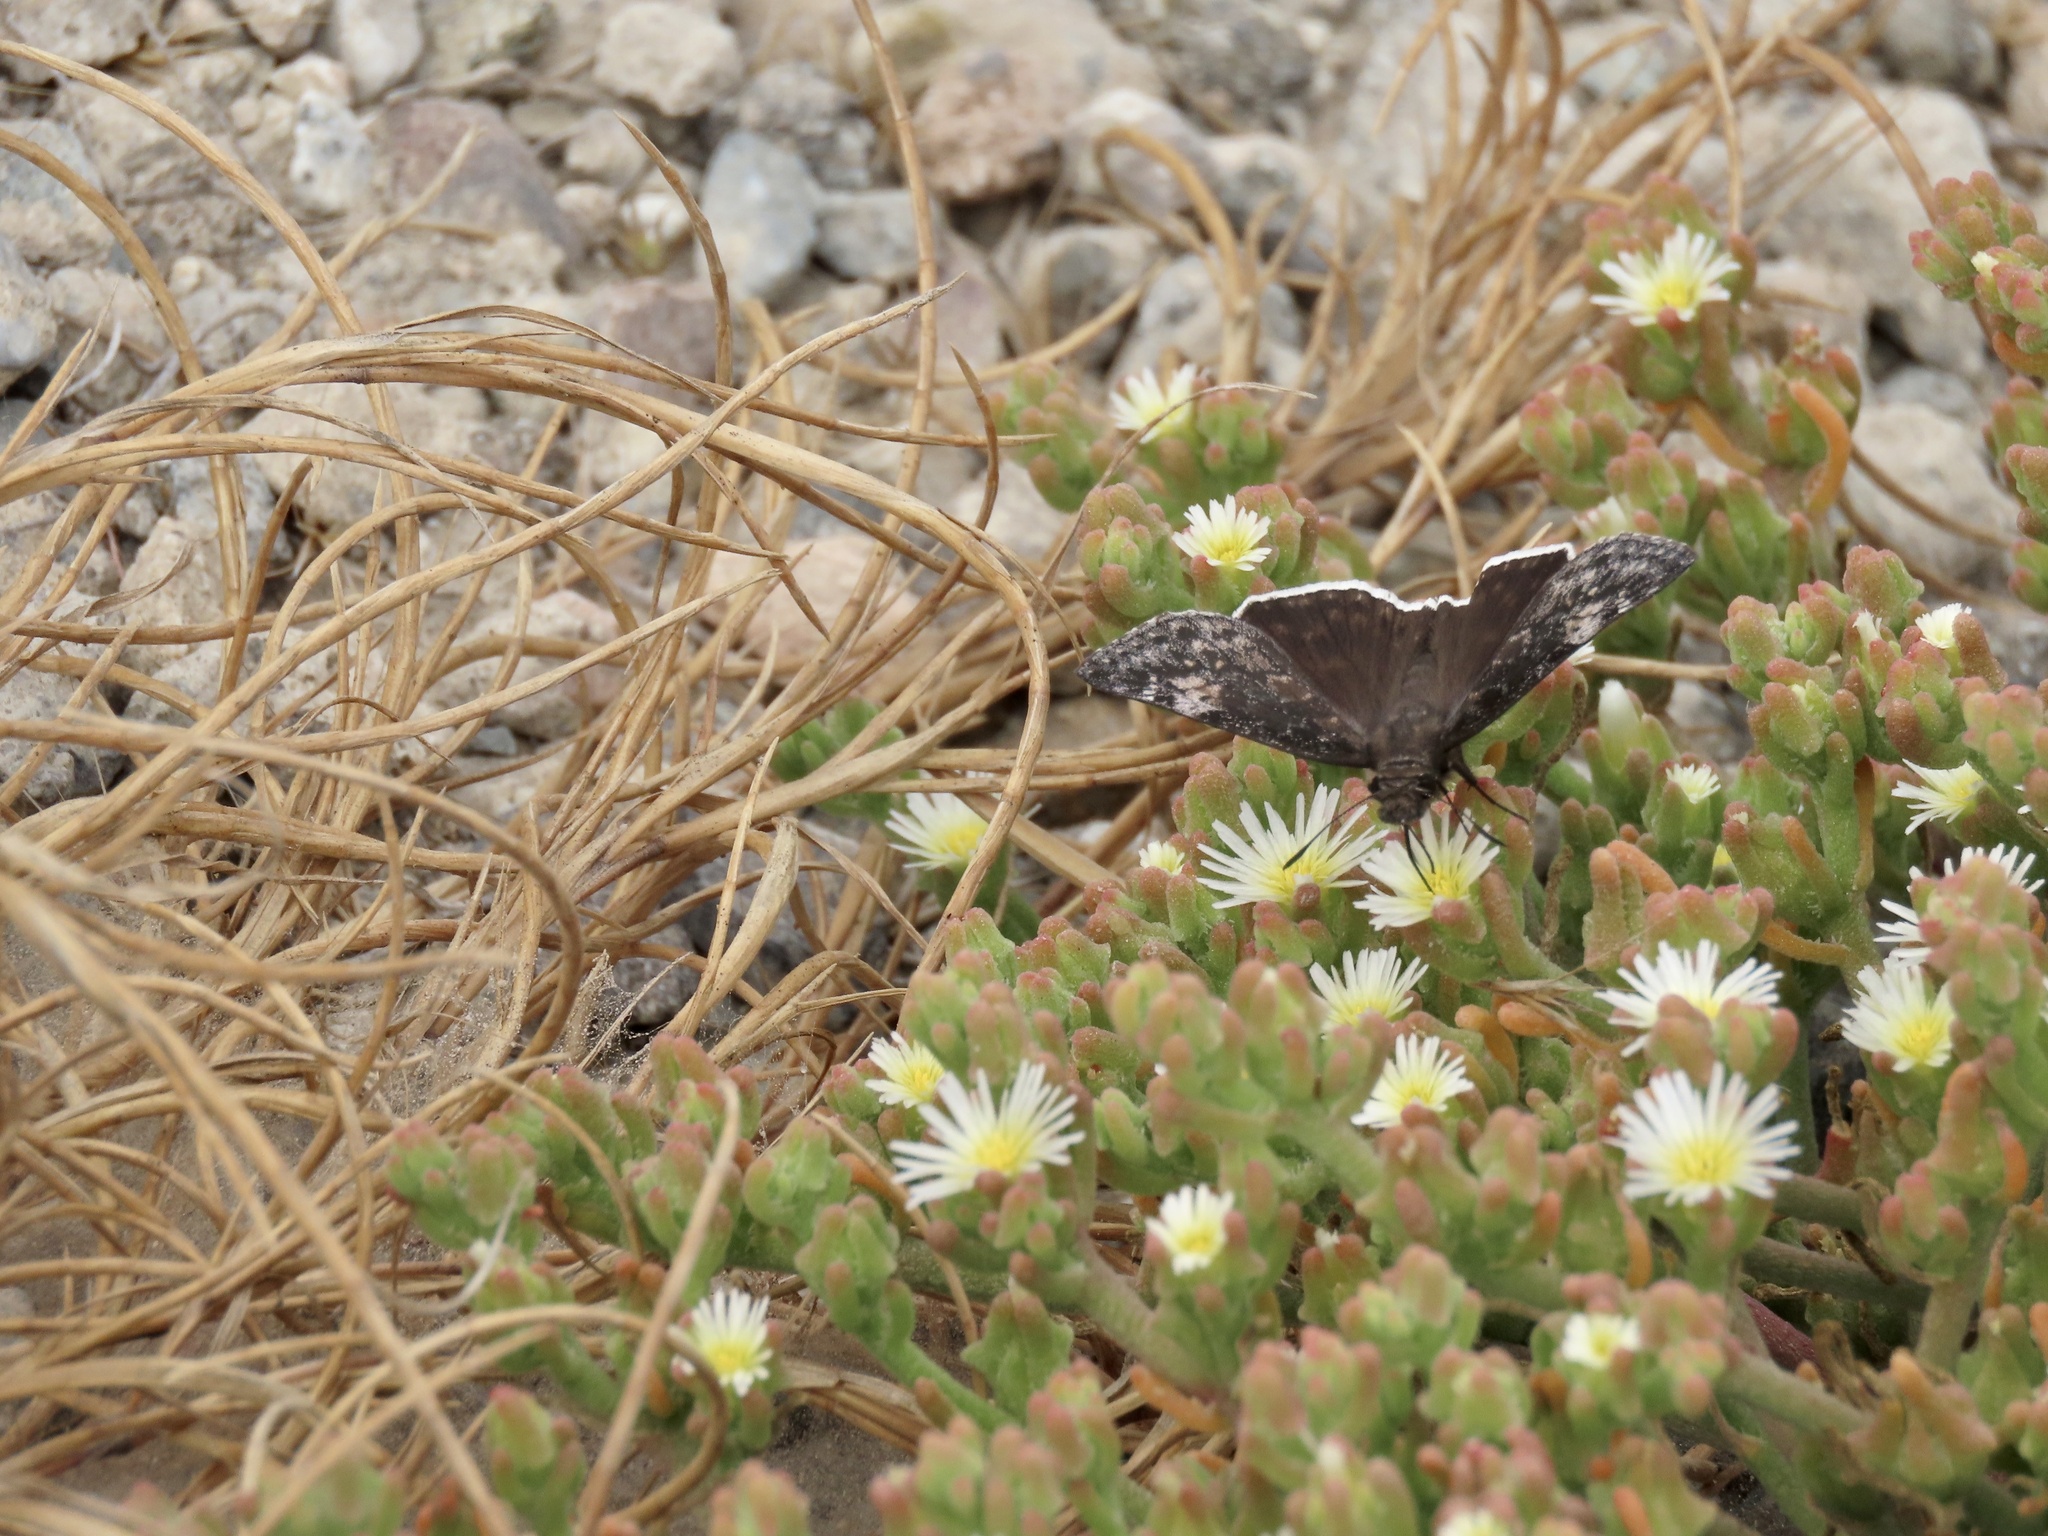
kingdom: Animalia
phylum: Arthropoda
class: Insecta
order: Lepidoptera
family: Hesperiidae
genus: Erynnis
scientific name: Erynnis funeralis
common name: Funereal duskywing
